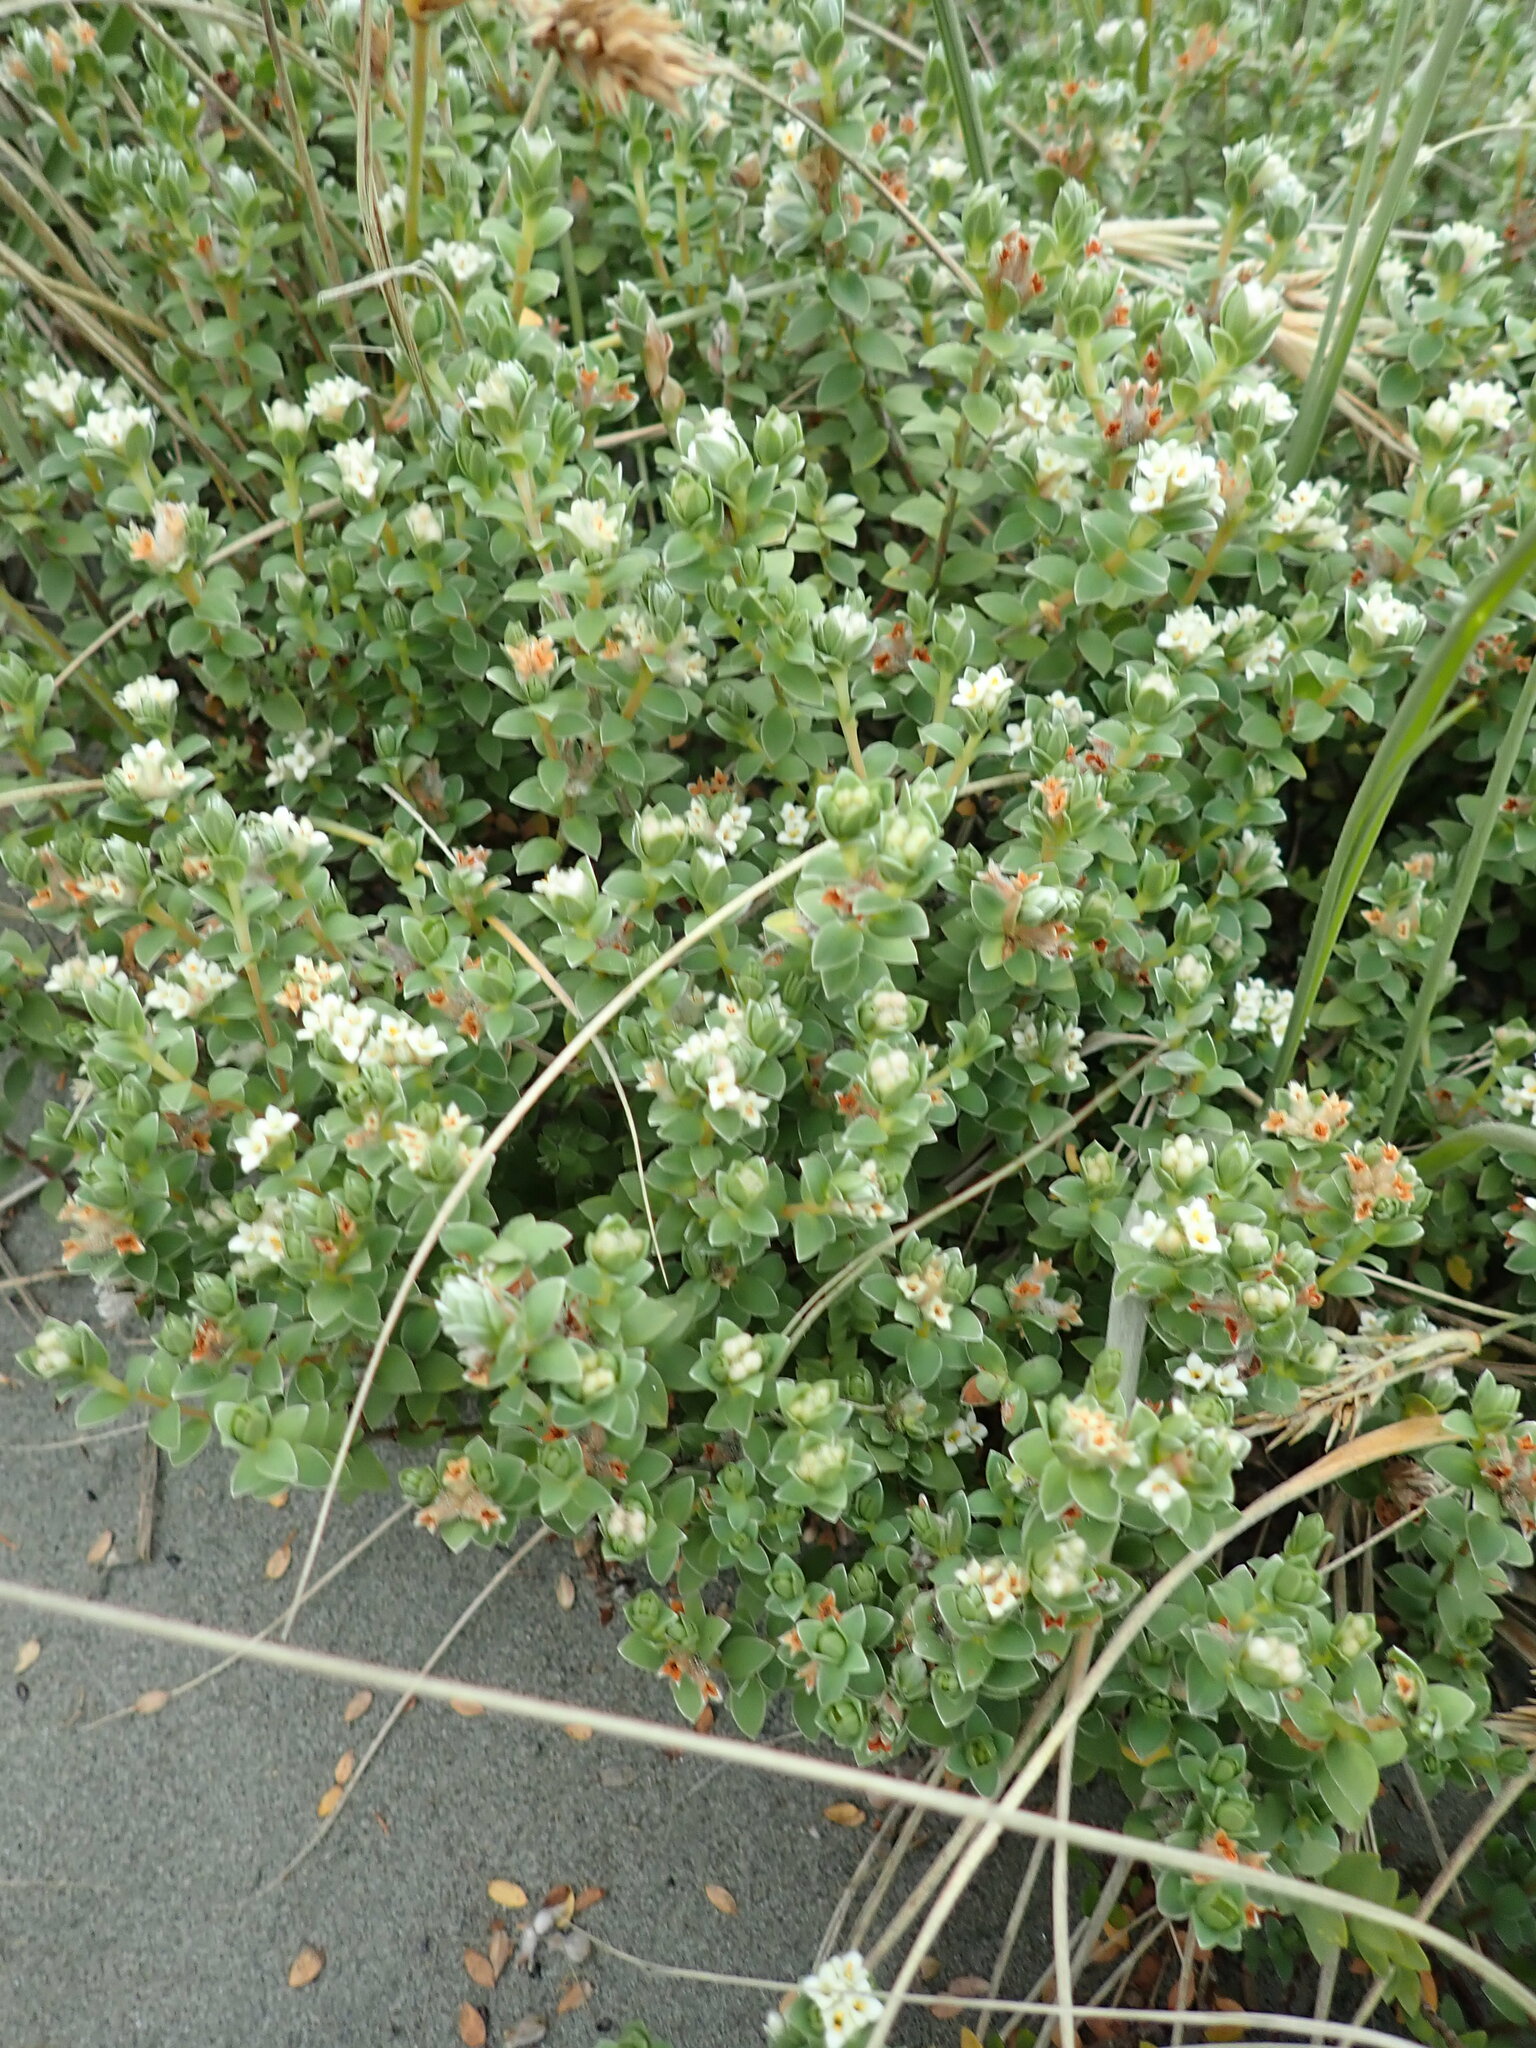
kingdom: Plantae
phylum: Tracheophyta
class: Magnoliopsida
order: Malvales
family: Thymelaeaceae
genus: Pimelea
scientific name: Pimelea villosa
